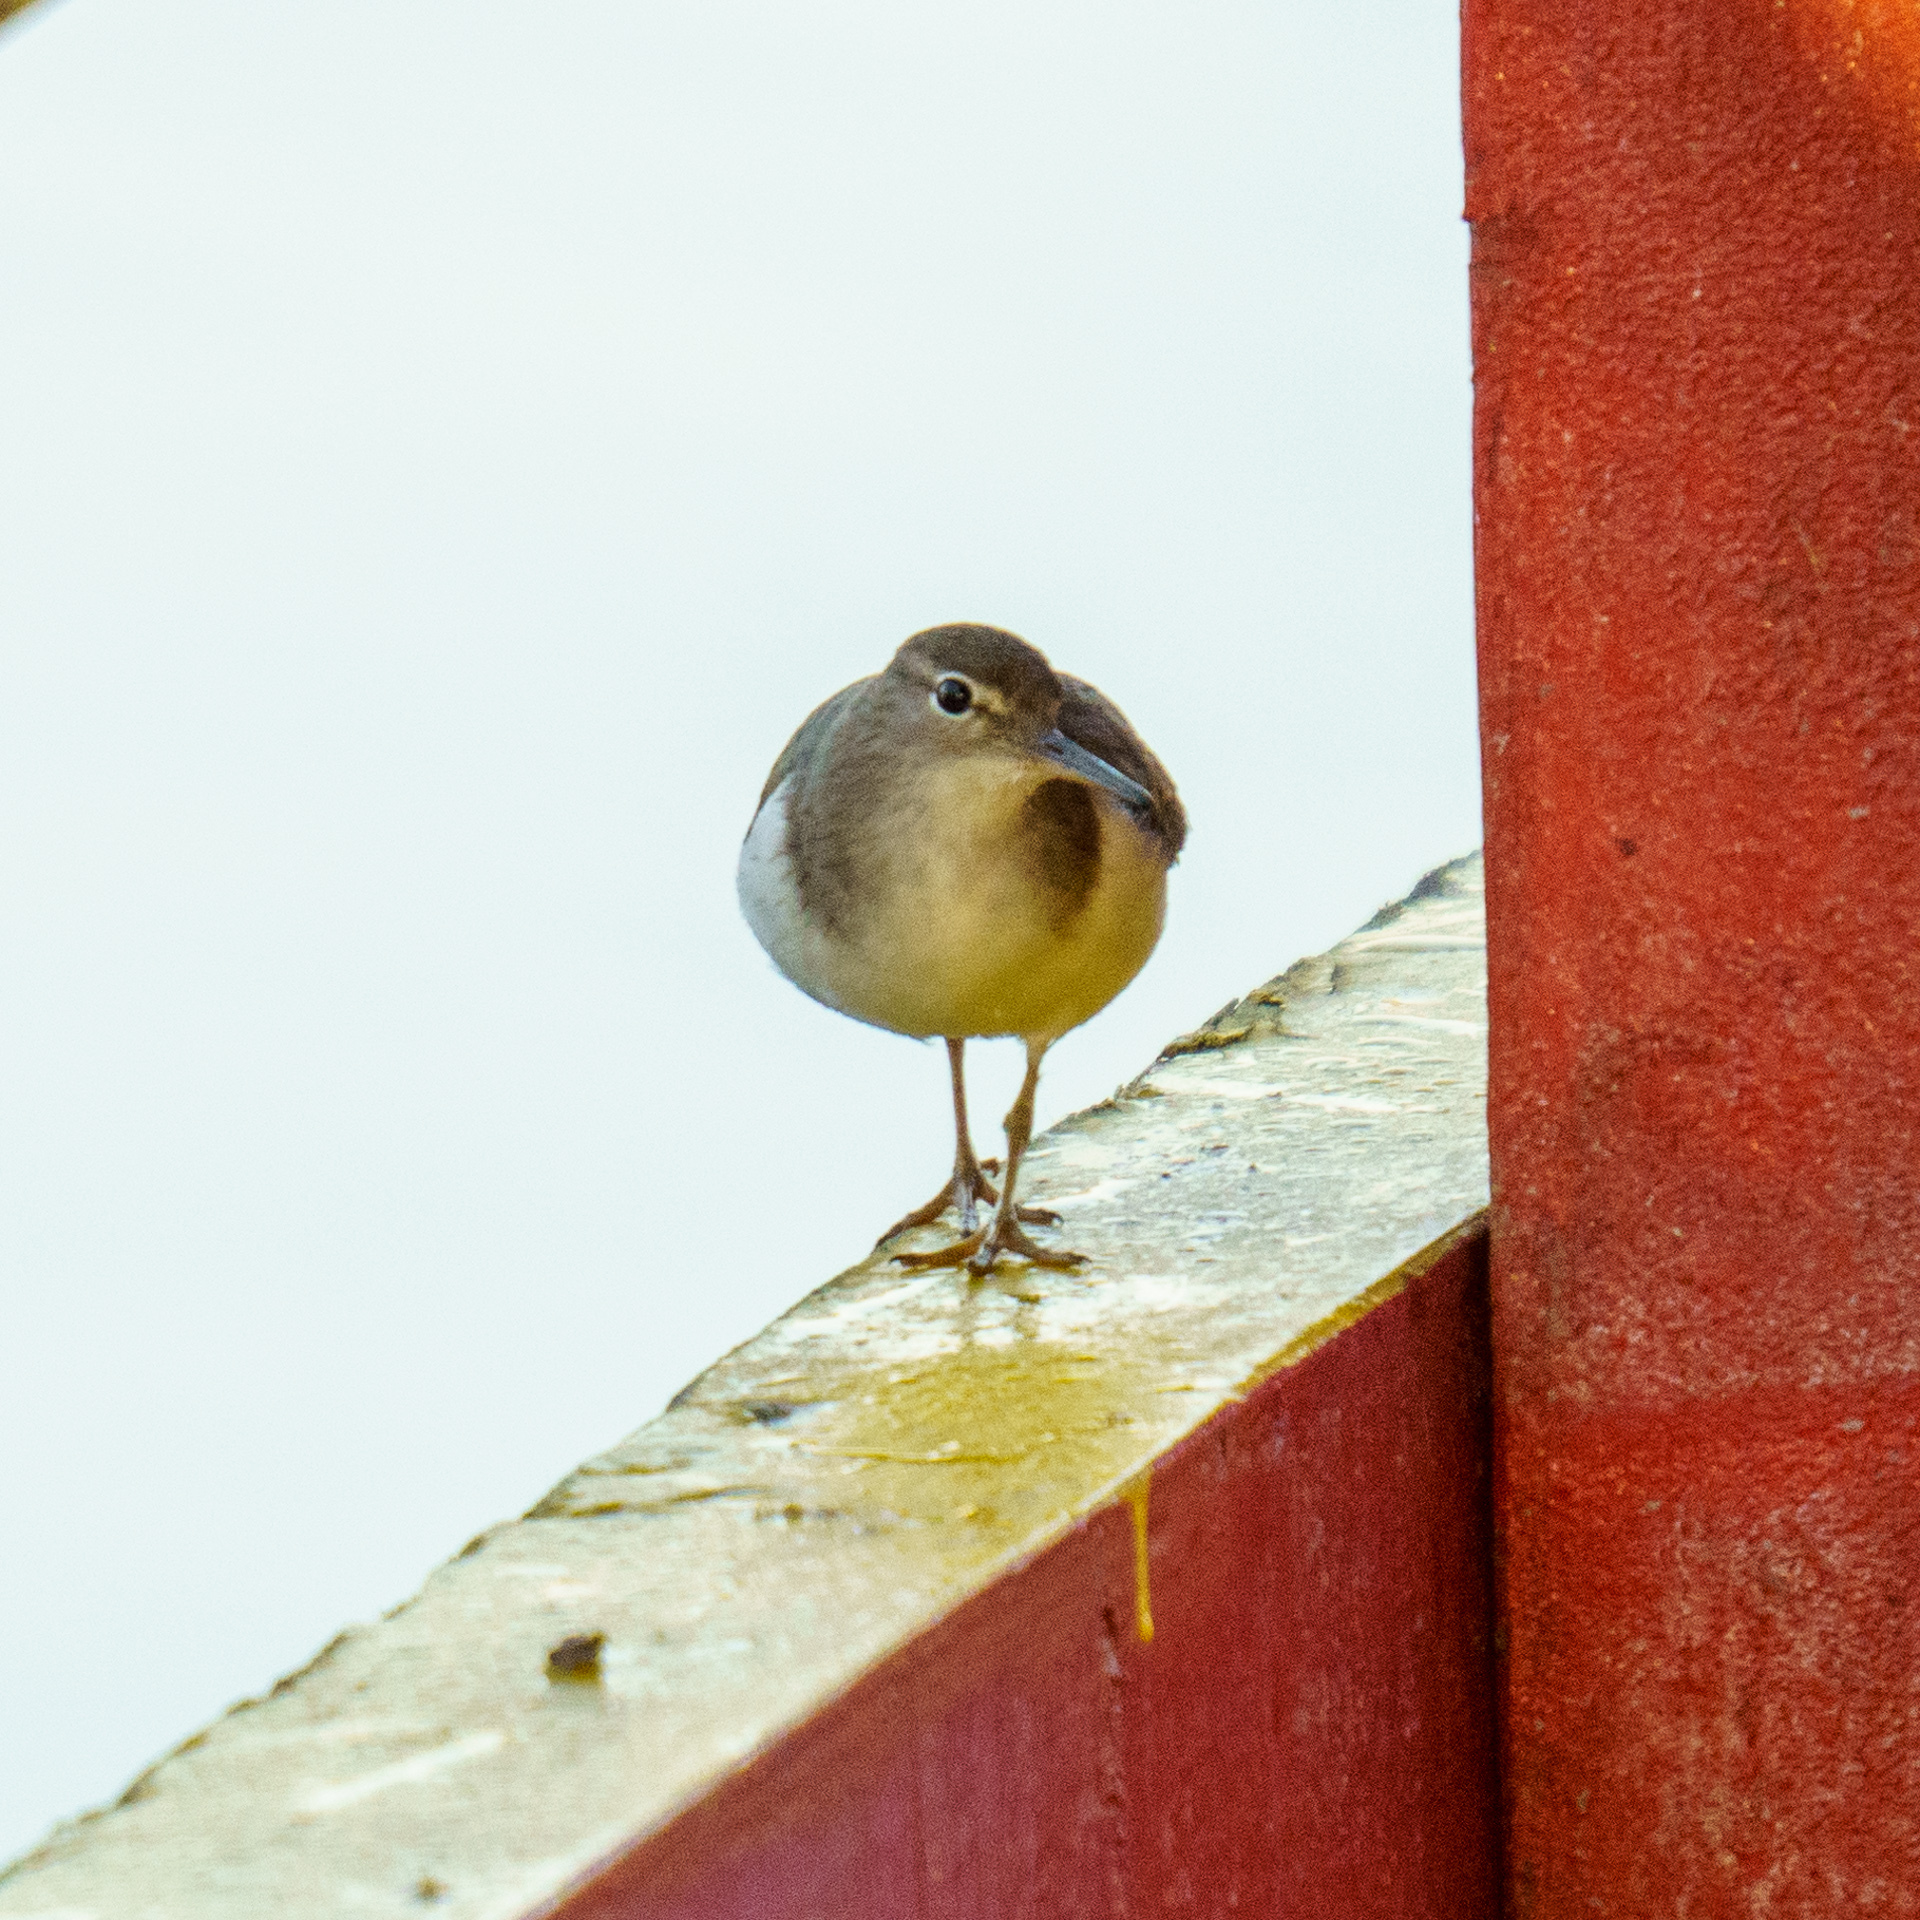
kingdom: Animalia
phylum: Chordata
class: Aves
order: Charadriiformes
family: Scolopacidae
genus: Actitis
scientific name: Actitis macularius
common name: Spotted sandpiper
